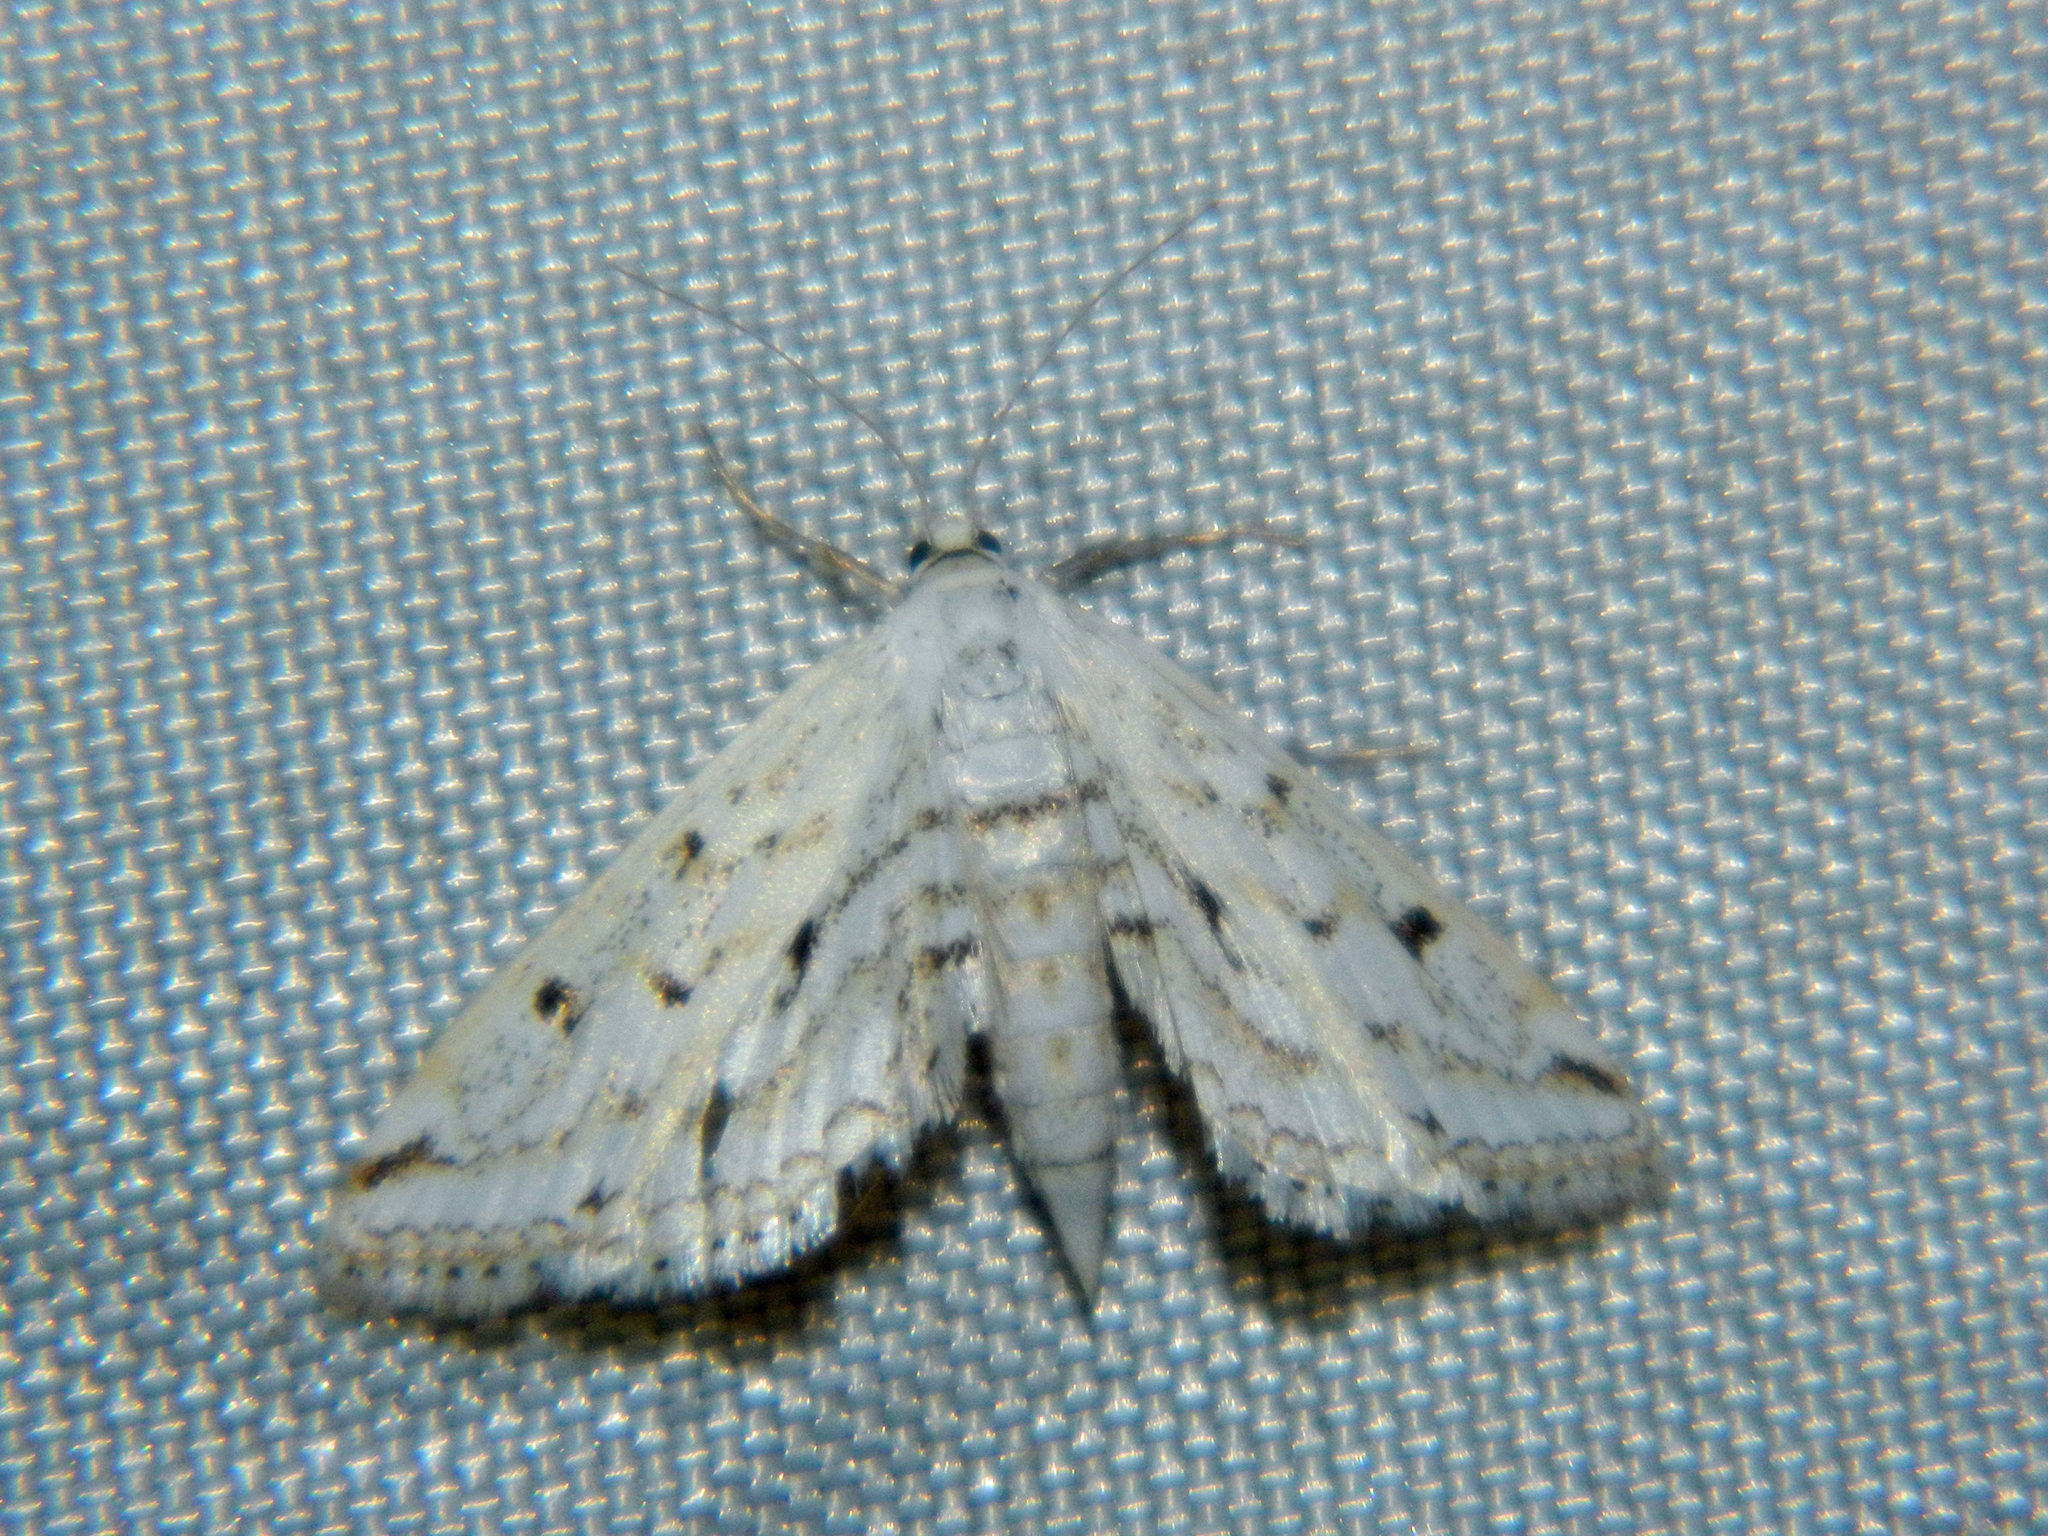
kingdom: Animalia
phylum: Arthropoda
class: Insecta
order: Lepidoptera
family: Crambidae
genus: Parapoynx
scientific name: Parapoynx allionealis
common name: Bladderwort casemaker
